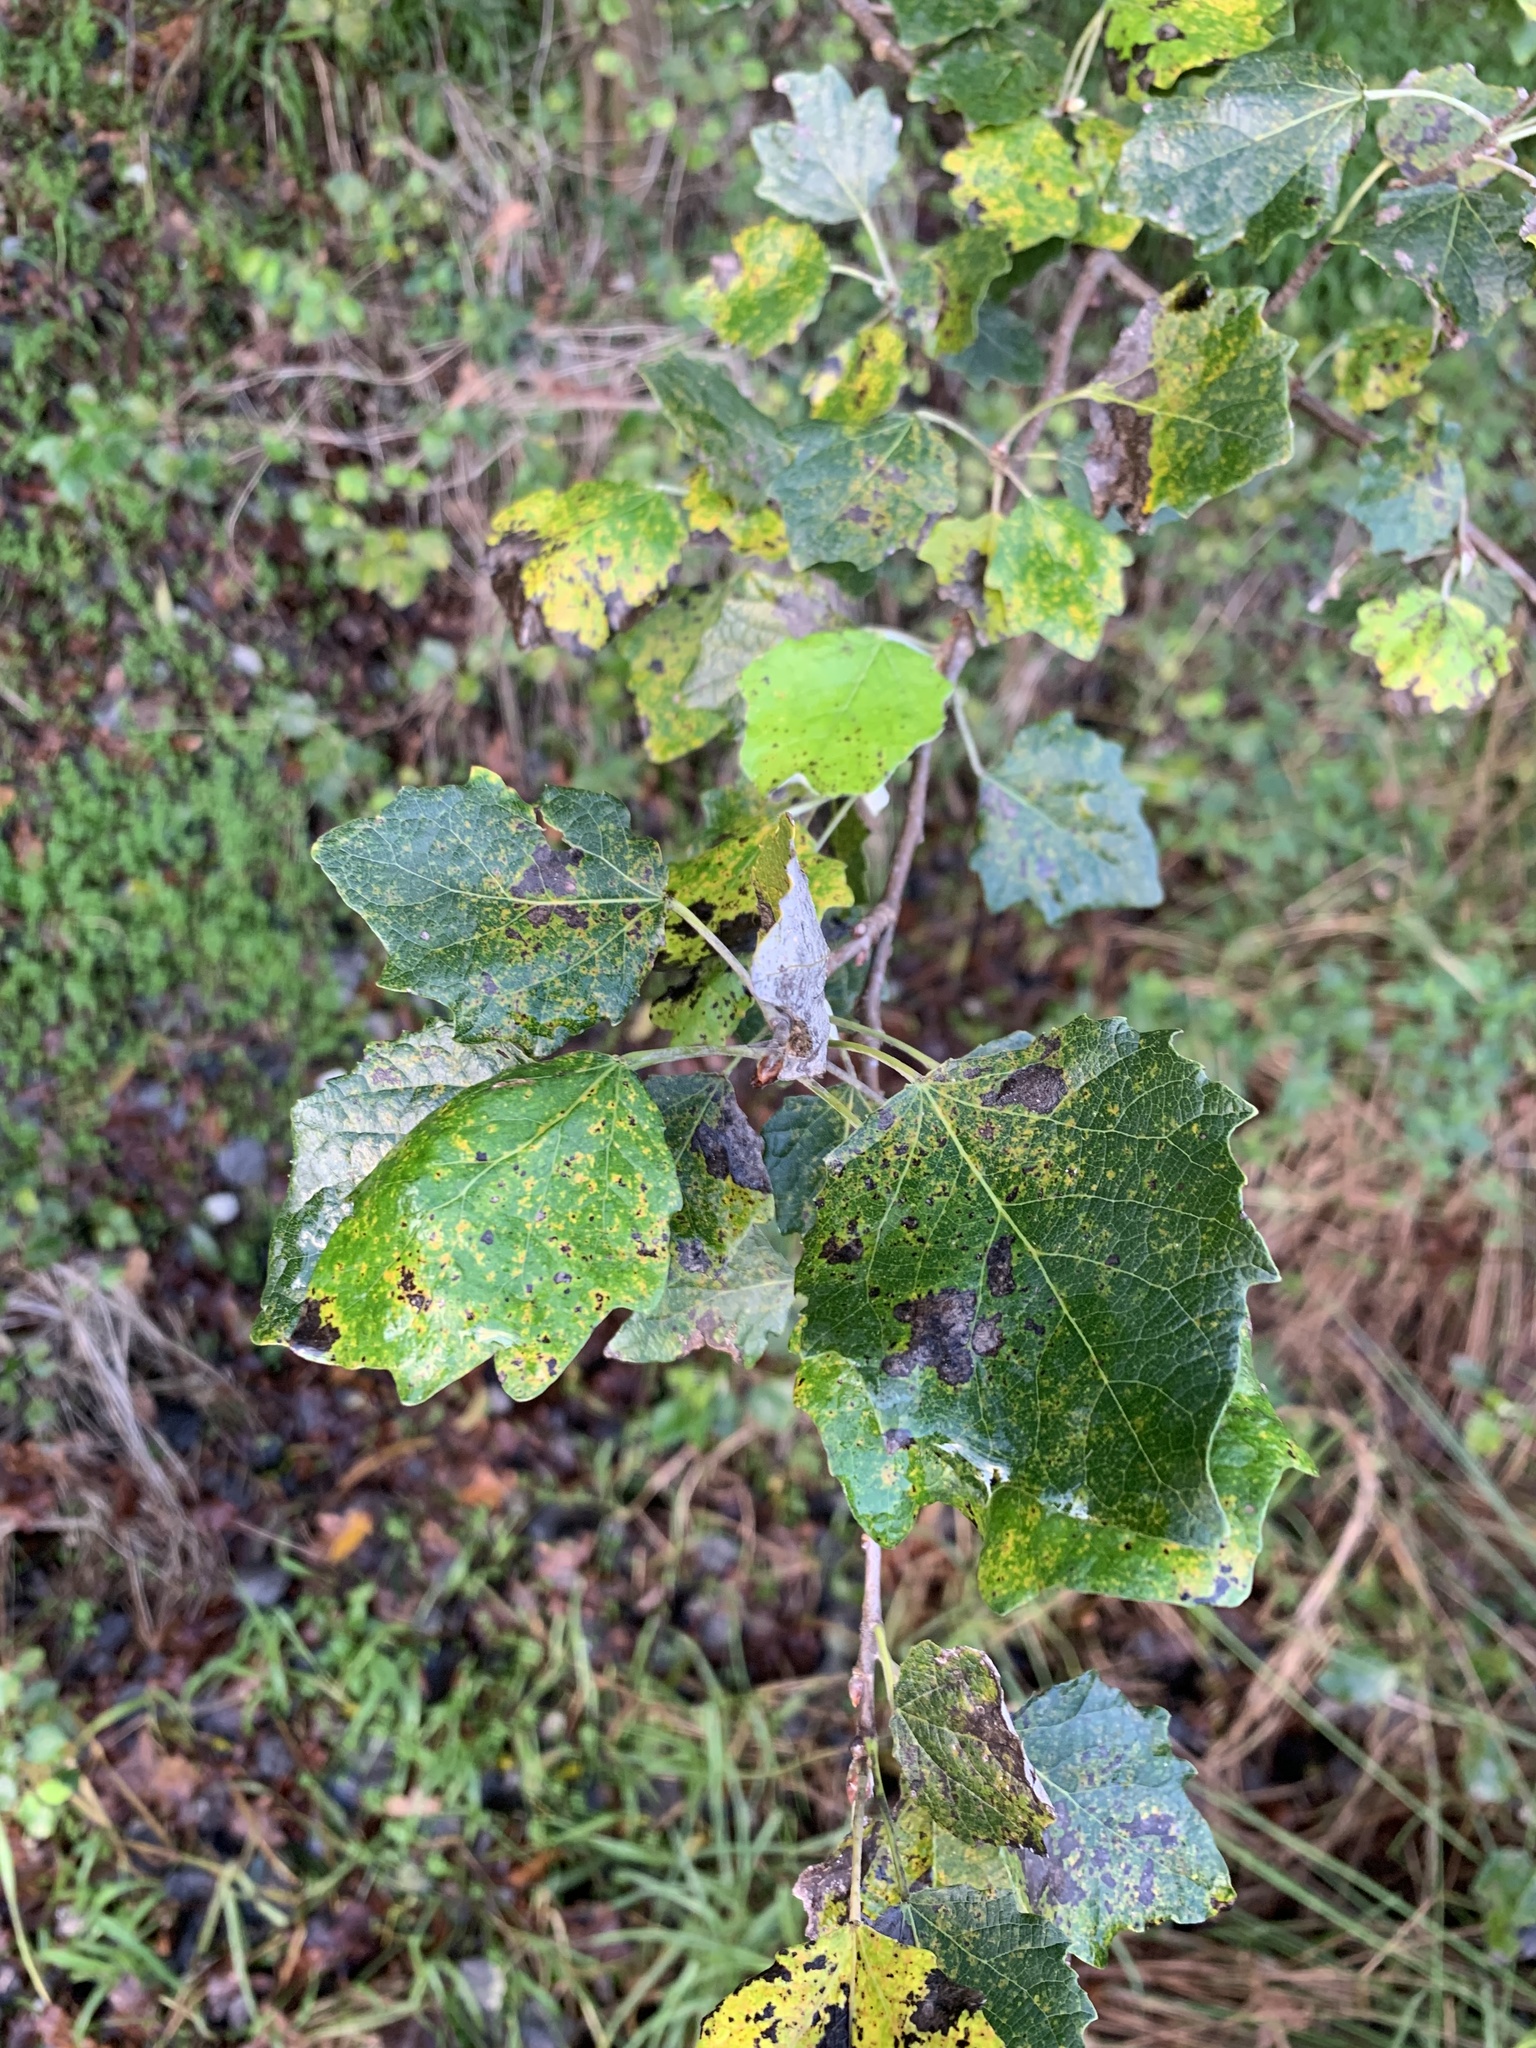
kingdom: Plantae
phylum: Tracheophyta
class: Magnoliopsida
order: Malpighiales
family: Salicaceae
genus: Populus
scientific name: Populus canescens
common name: Gray poplar
